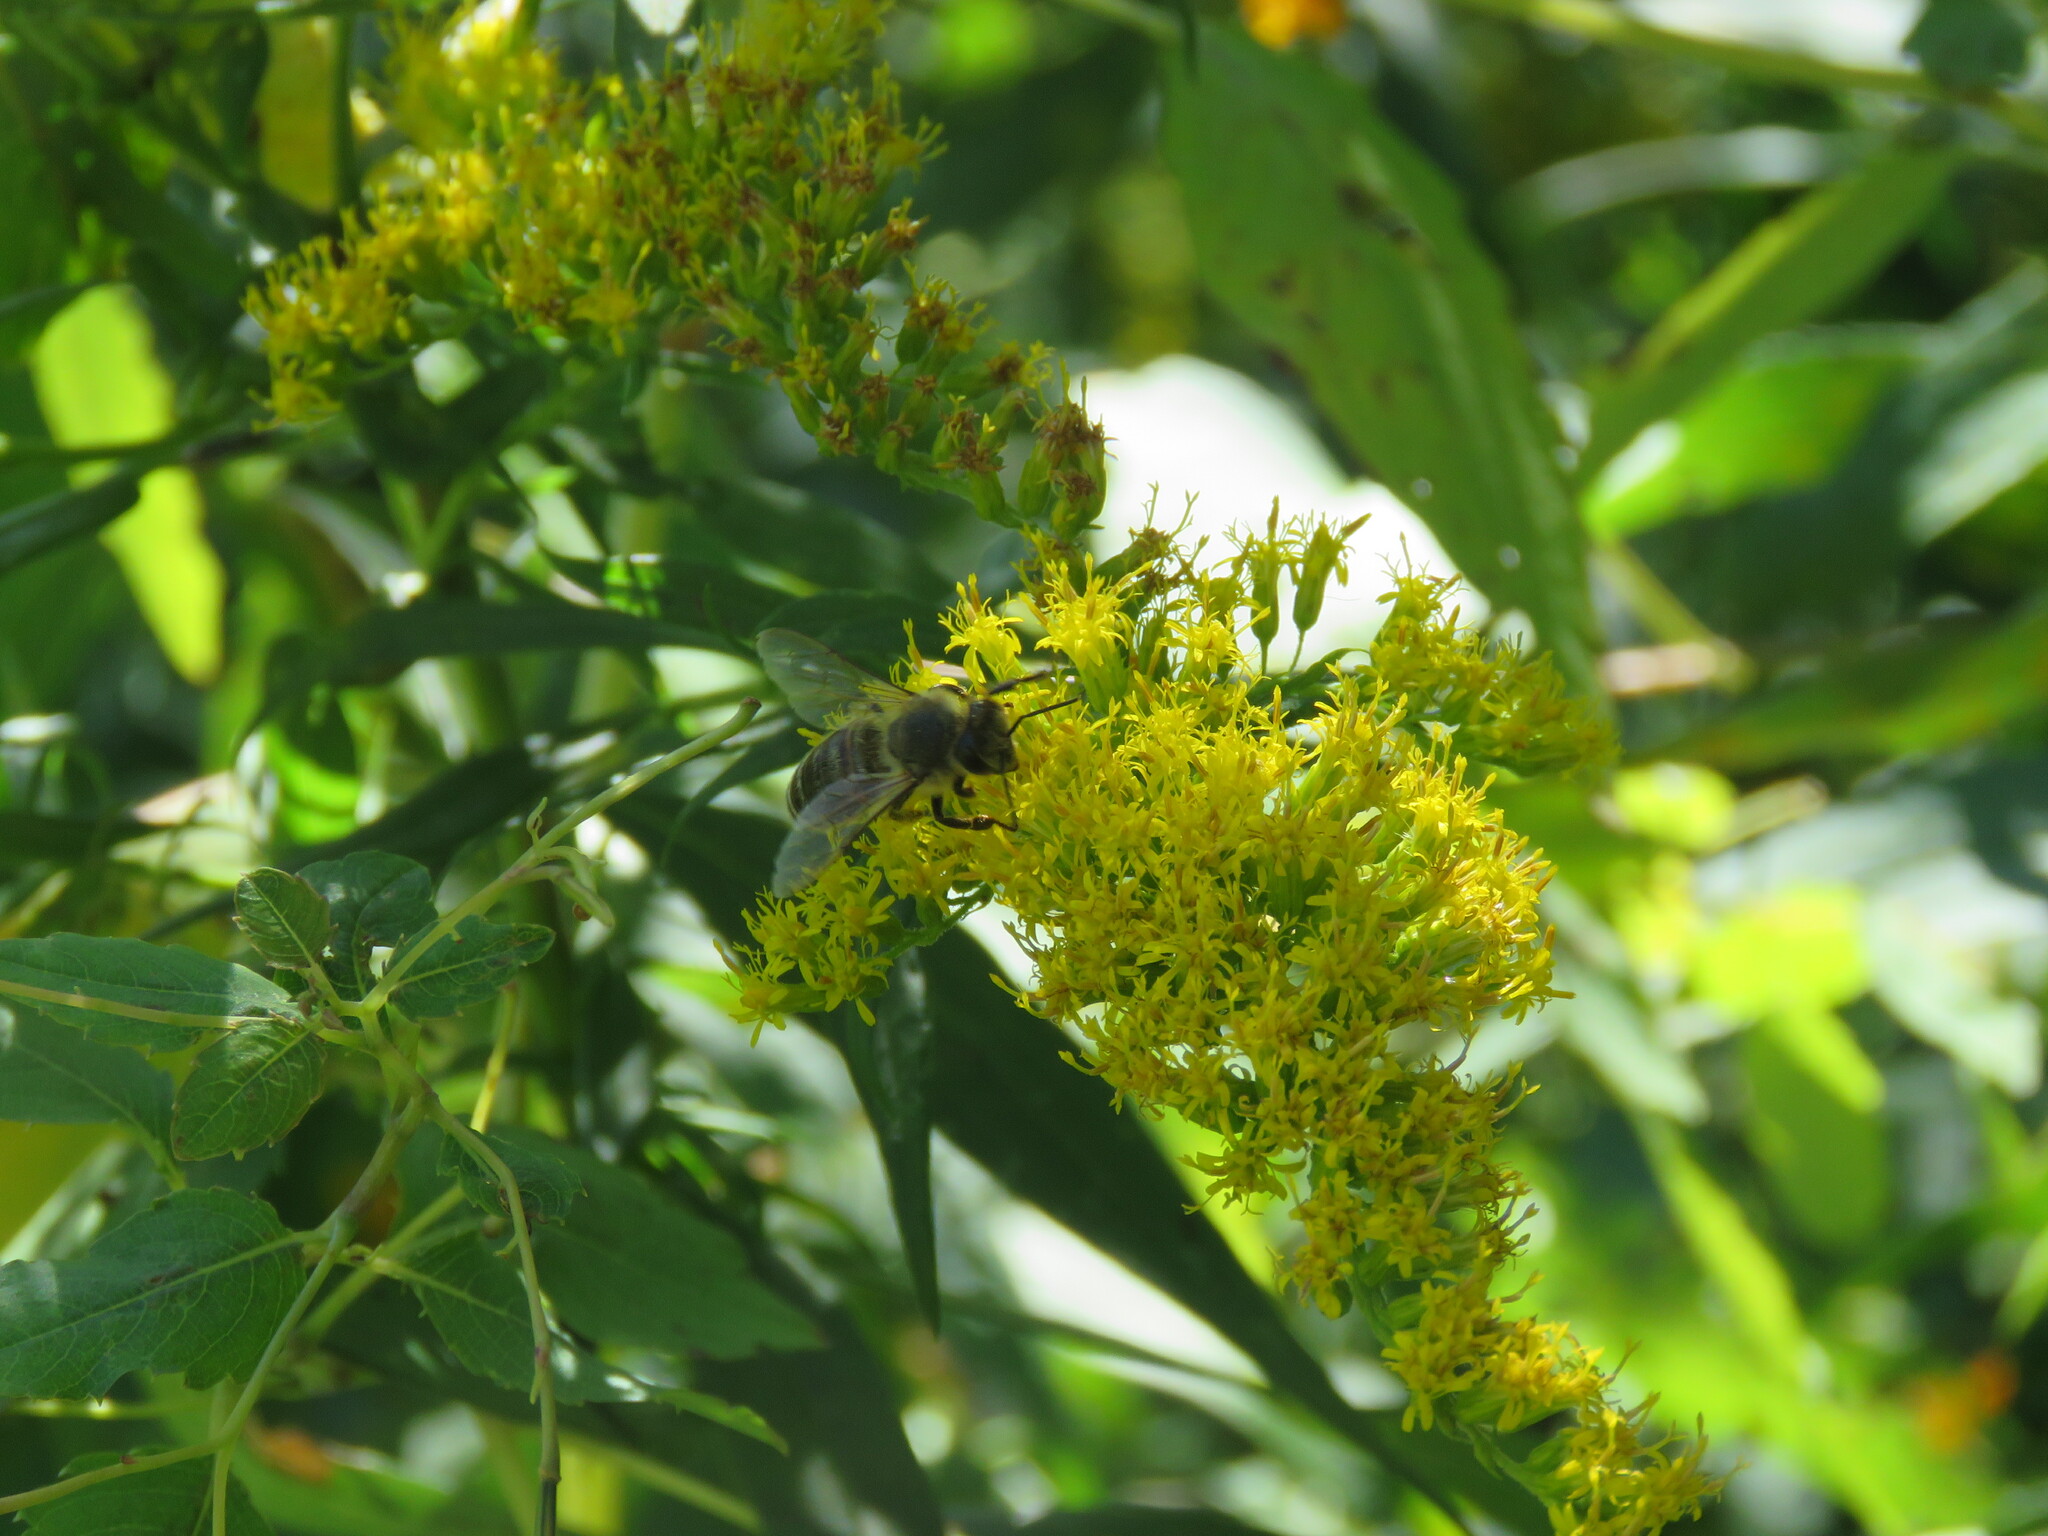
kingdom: Animalia
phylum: Arthropoda
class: Insecta
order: Hymenoptera
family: Apidae
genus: Apis
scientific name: Apis mellifera
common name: Honey bee
